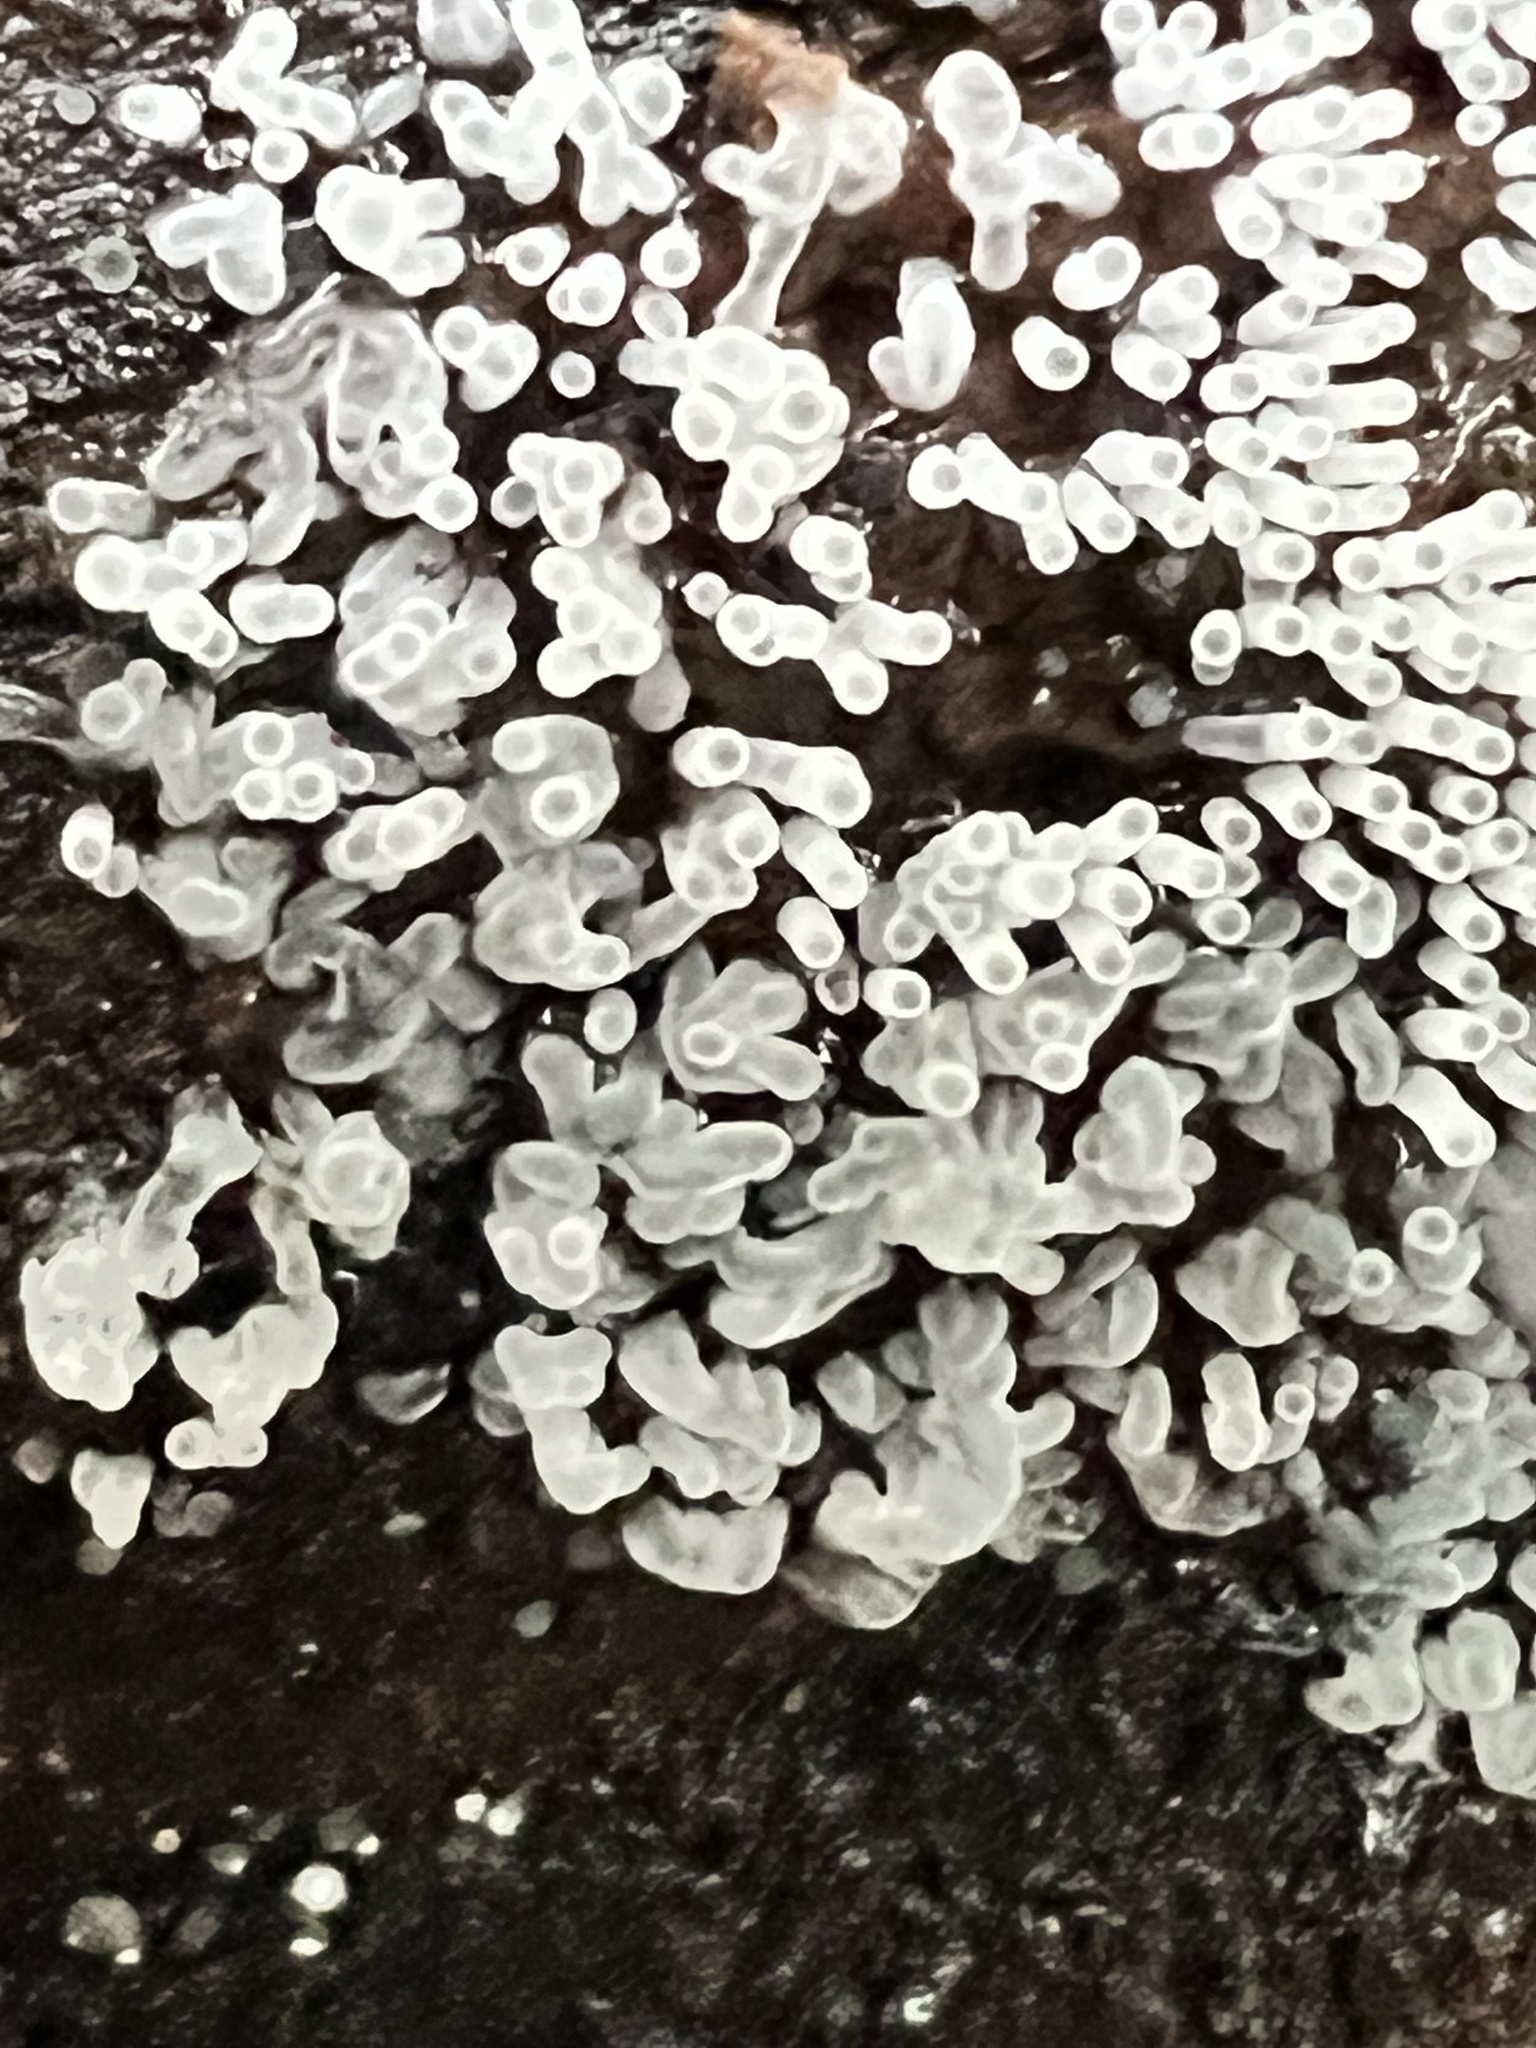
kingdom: Protozoa
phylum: Mycetozoa
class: Protosteliomycetes
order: Ceratiomyxales
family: Ceratiomyxaceae
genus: Ceratiomyxa
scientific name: Ceratiomyxa fruticulosa
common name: Honeycomb coral slime mold
